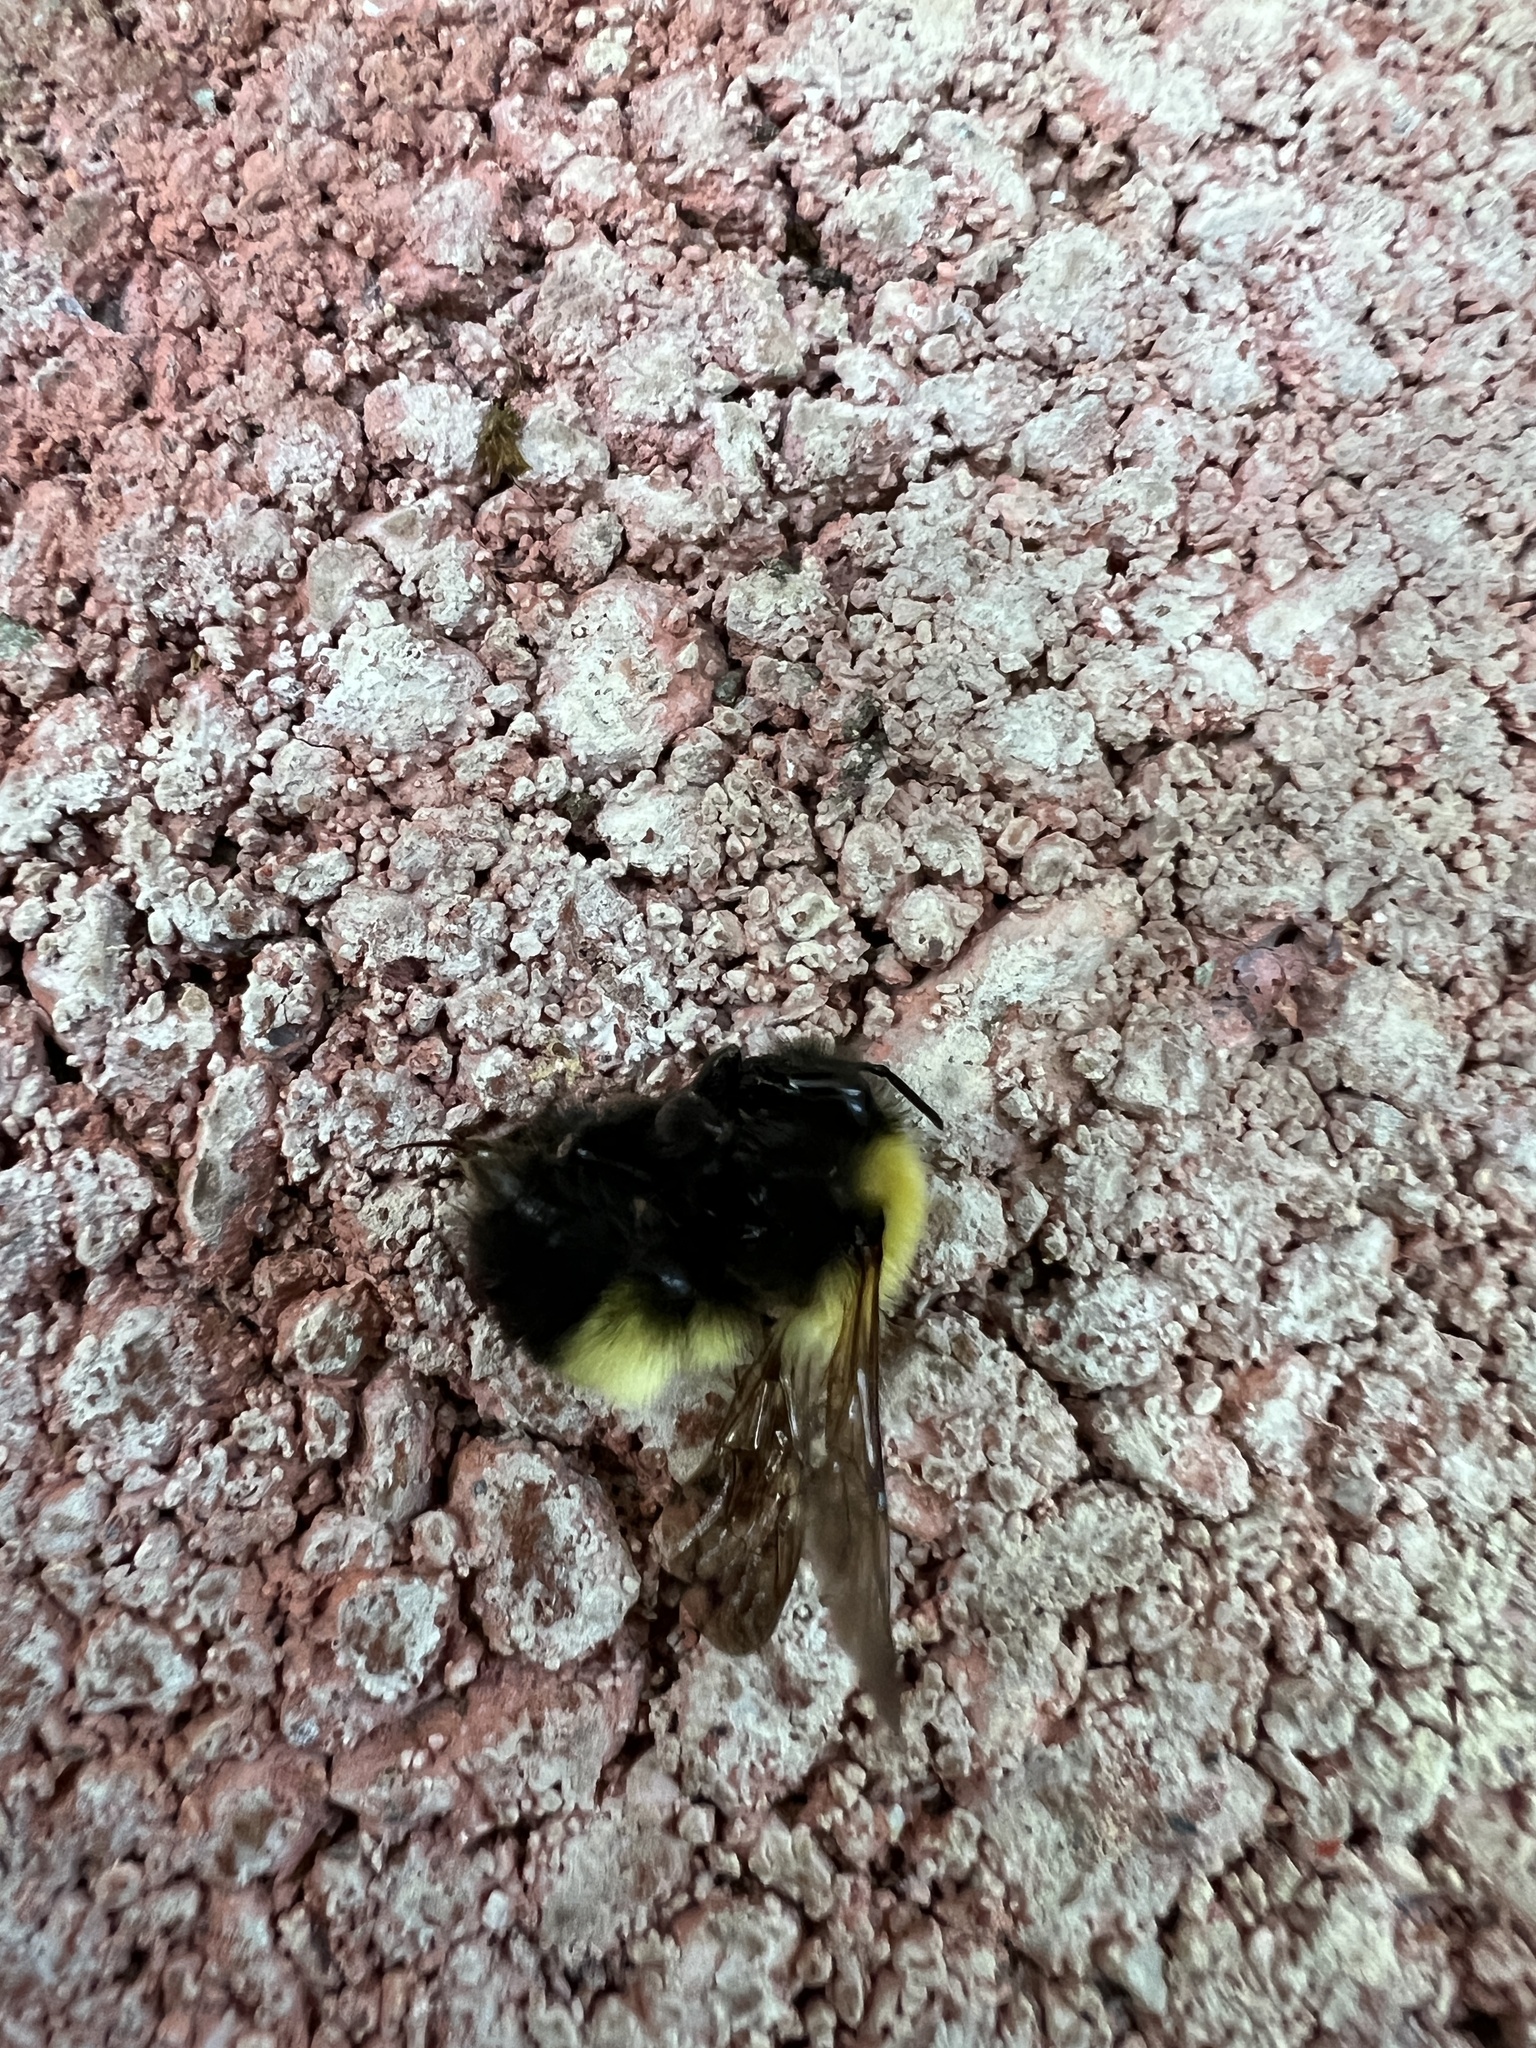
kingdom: Animalia
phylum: Arthropoda
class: Insecta
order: Hymenoptera
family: Apidae
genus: Bombus
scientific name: Bombus perplexus
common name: Confusing bumble bee
